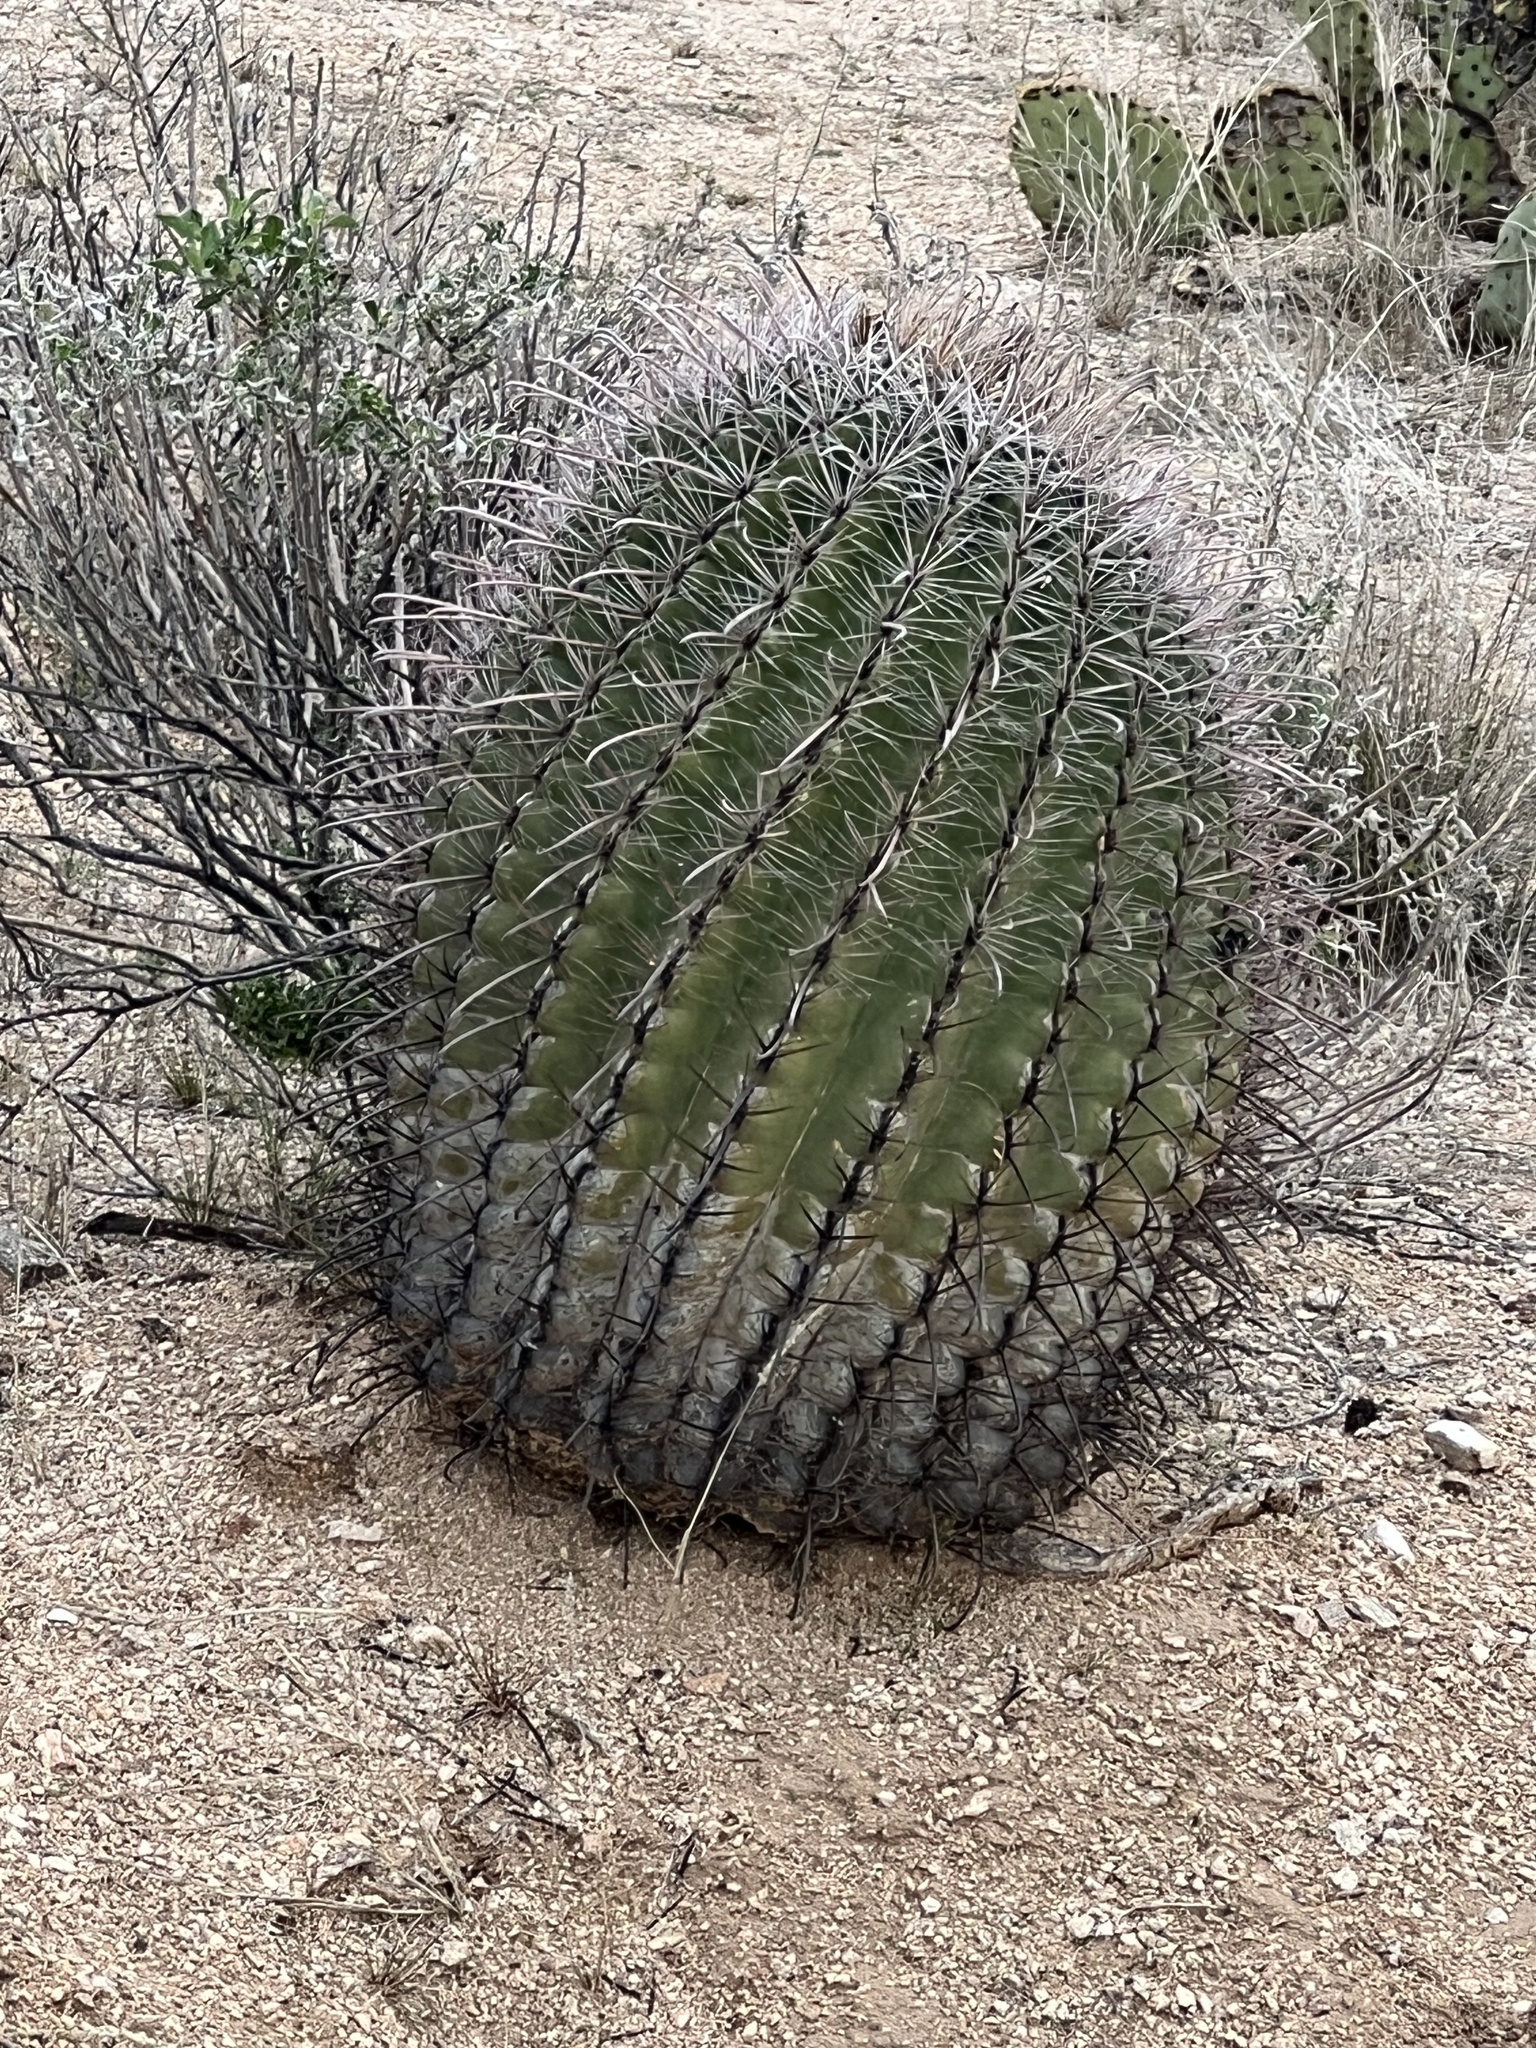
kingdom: Plantae
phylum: Tracheophyta
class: Magnoliopsida
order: Caryophyllales
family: Cactaceae
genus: Ferocactus
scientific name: Ferocactus wislizeni
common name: Candy barrel cactus
